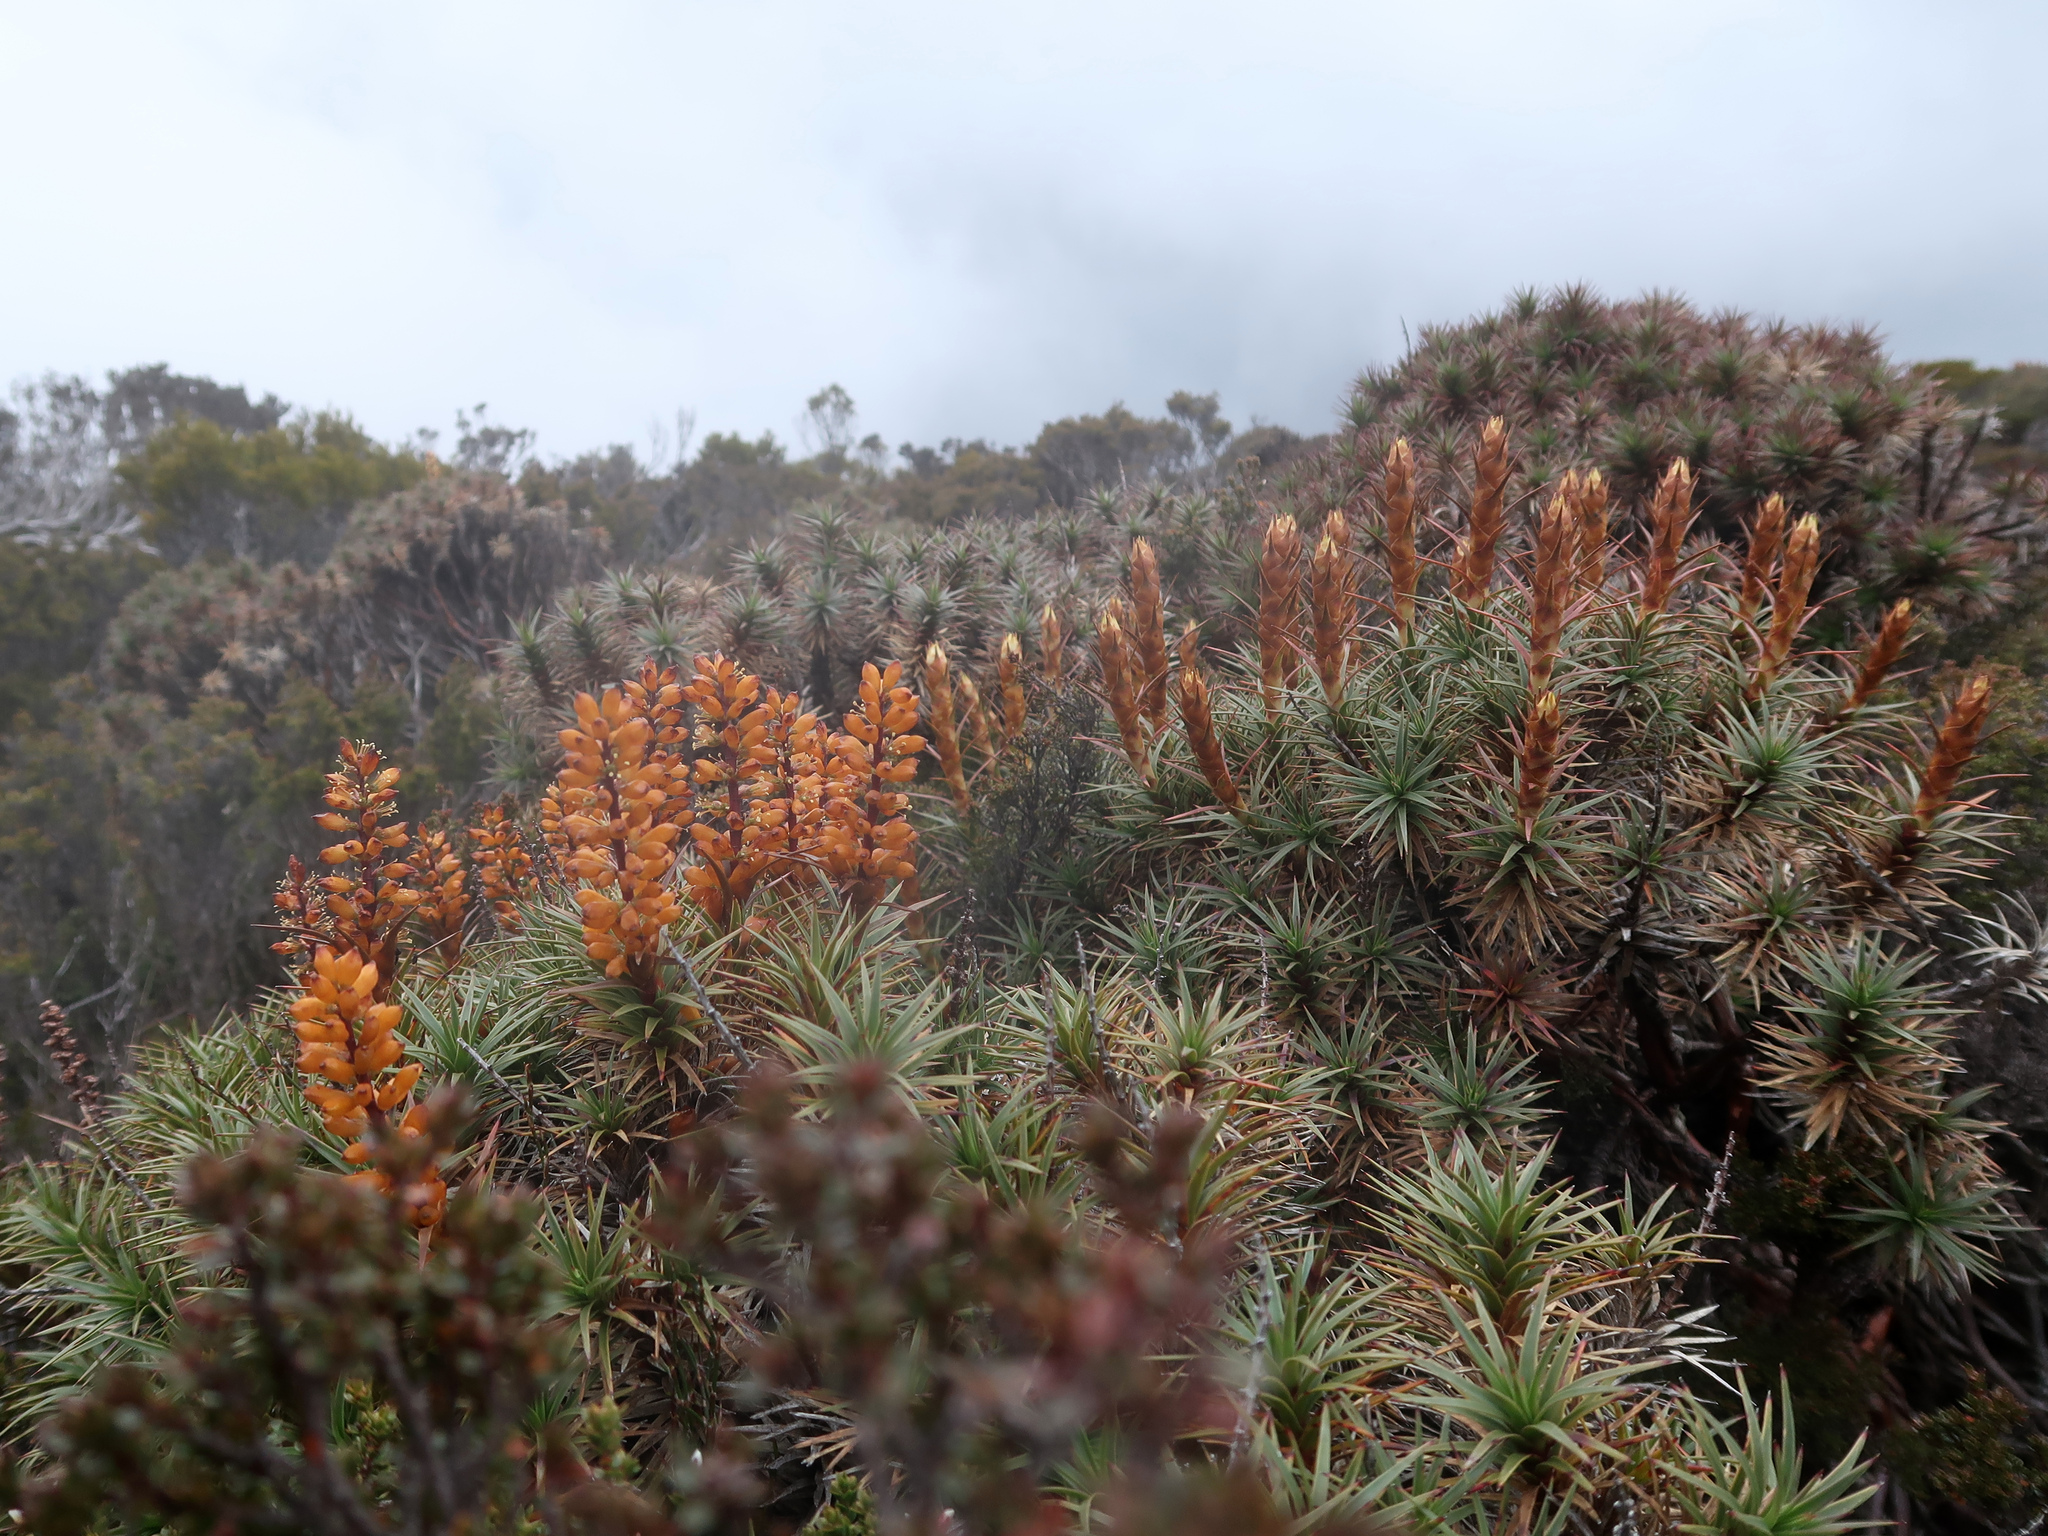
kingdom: Plantae
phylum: Tracheophyta
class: Magnoliopsida
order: Ericales
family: Ericaceae
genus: Dracophyllum
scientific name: Dracophyllum persistentifolium
